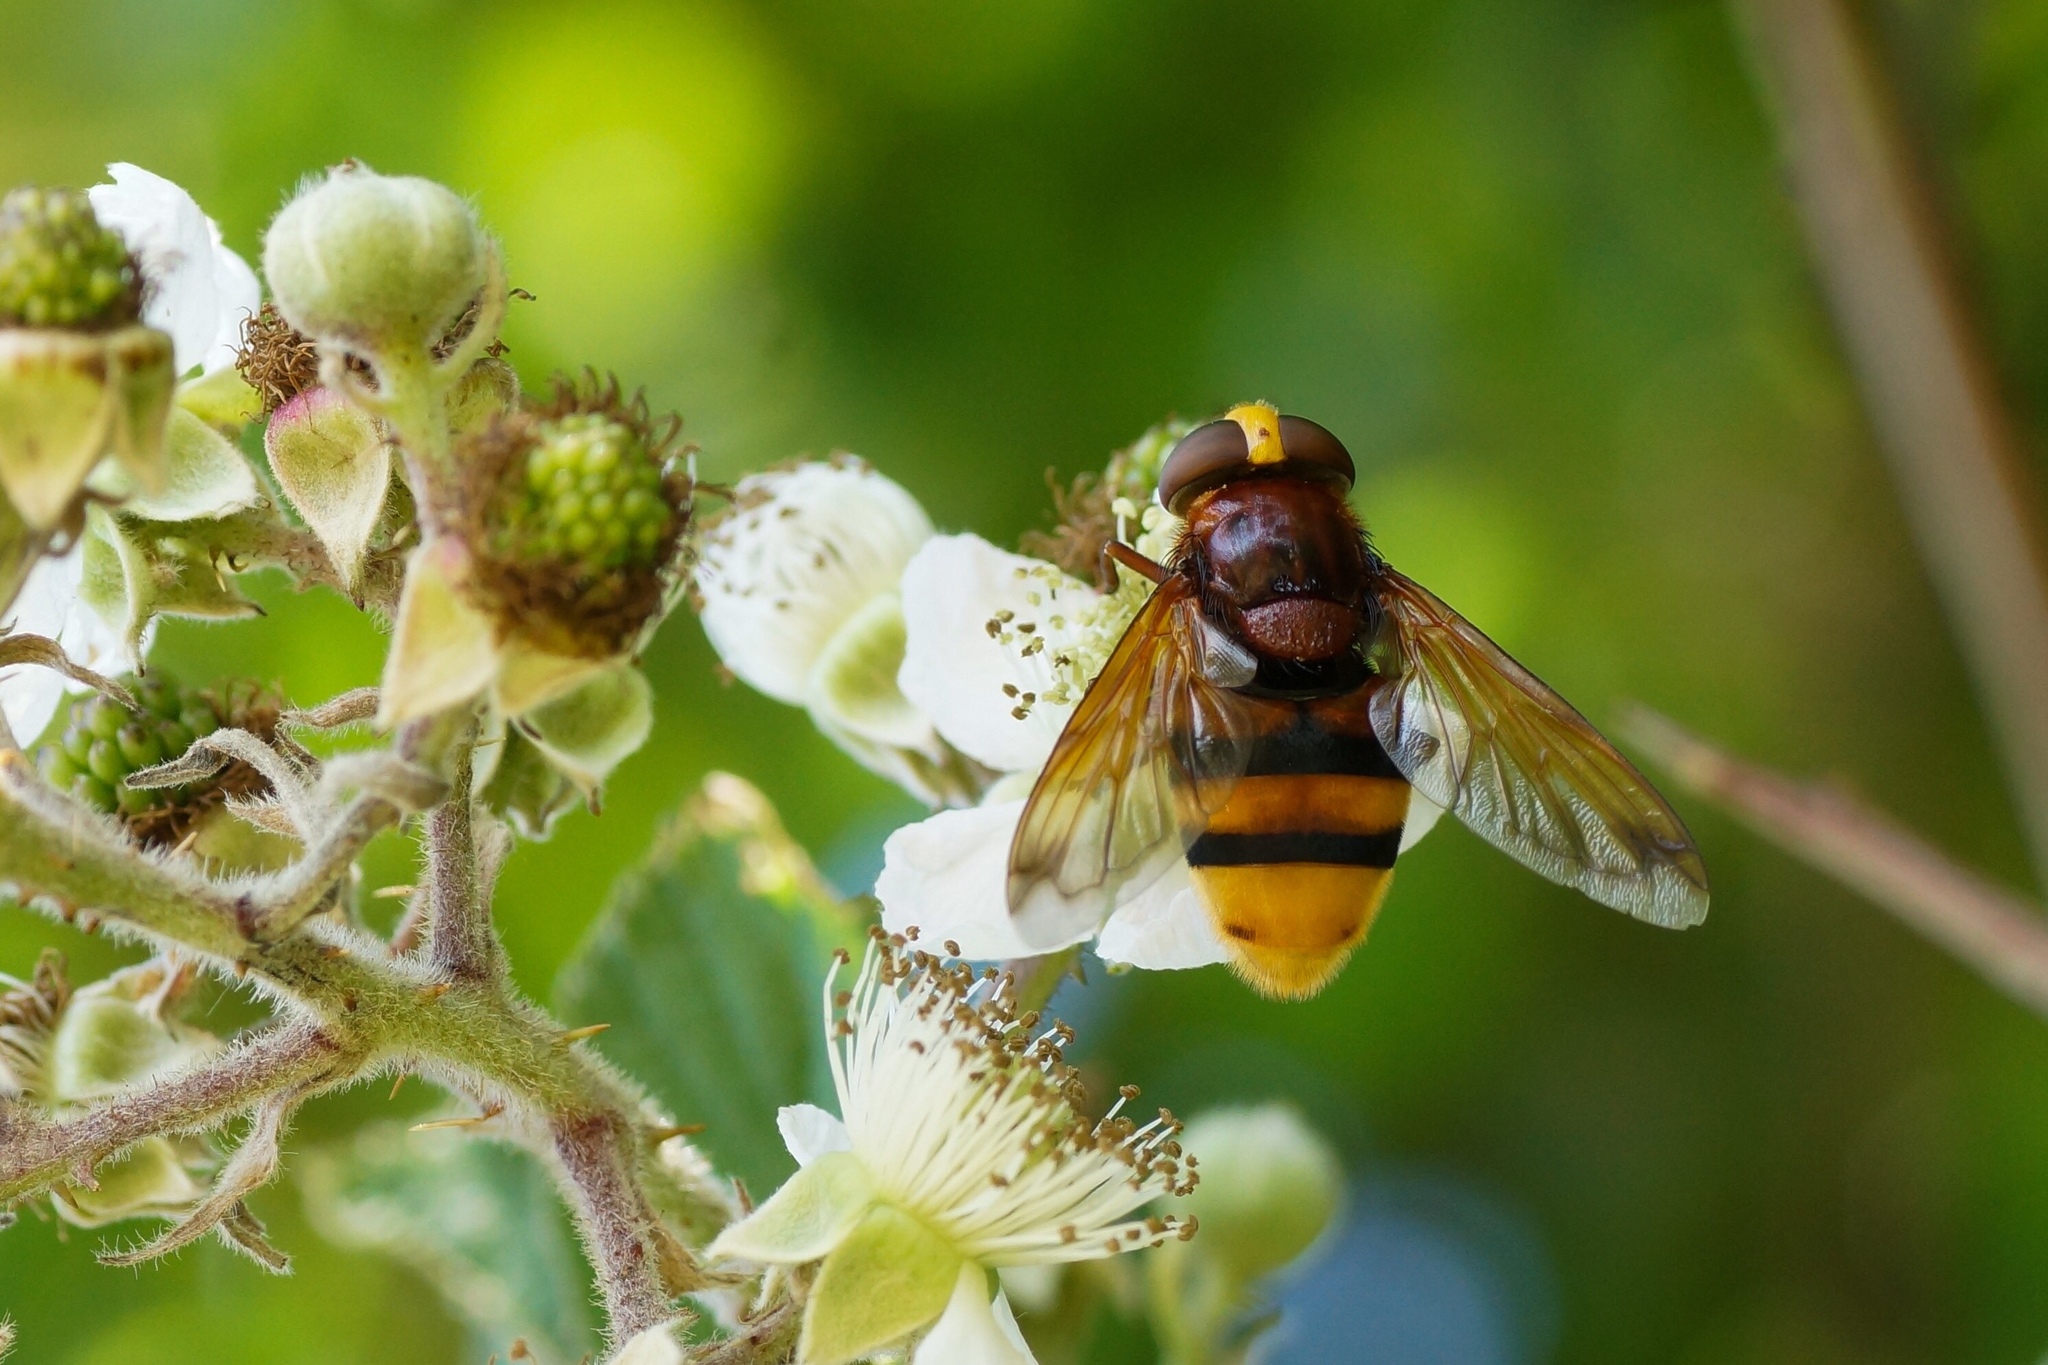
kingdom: Animalia
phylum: Arthropoda
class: Insecta
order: Diptera
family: Syrphidae
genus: Volucella
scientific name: Volucella zonaria
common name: Hornet hoverfly
